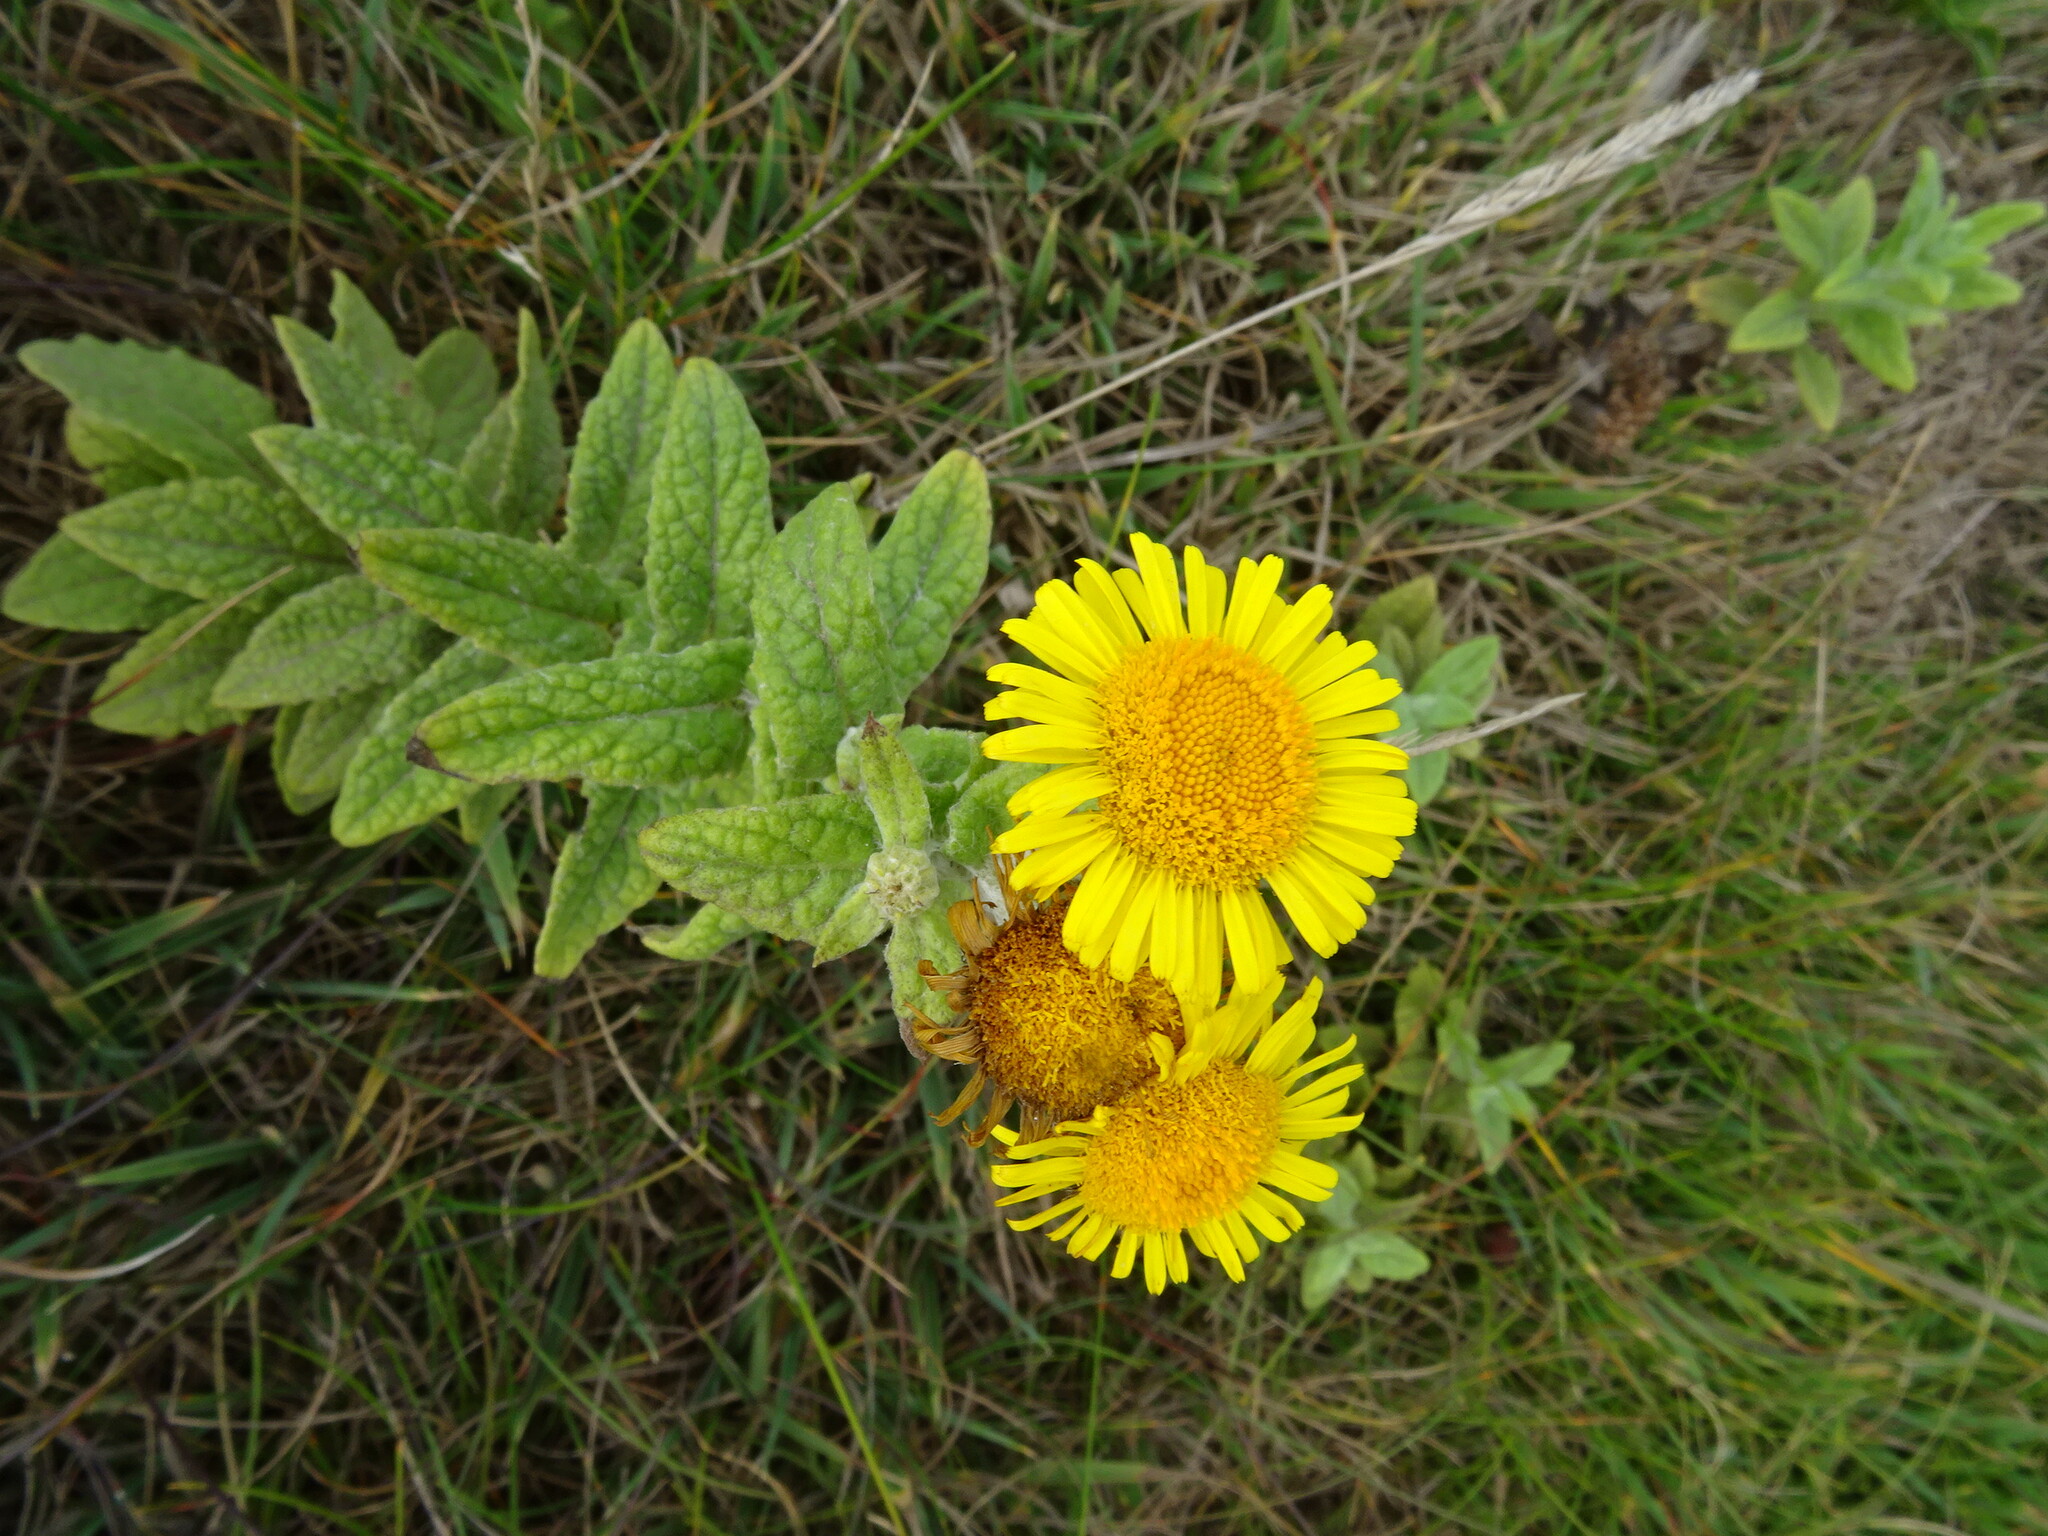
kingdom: Plantae
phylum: Tracheophyta
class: Magnoliopsida
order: Asterales
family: Asteraceae
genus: Pulicaria
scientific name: Pulicaria dysenterica
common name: Common fleabane
